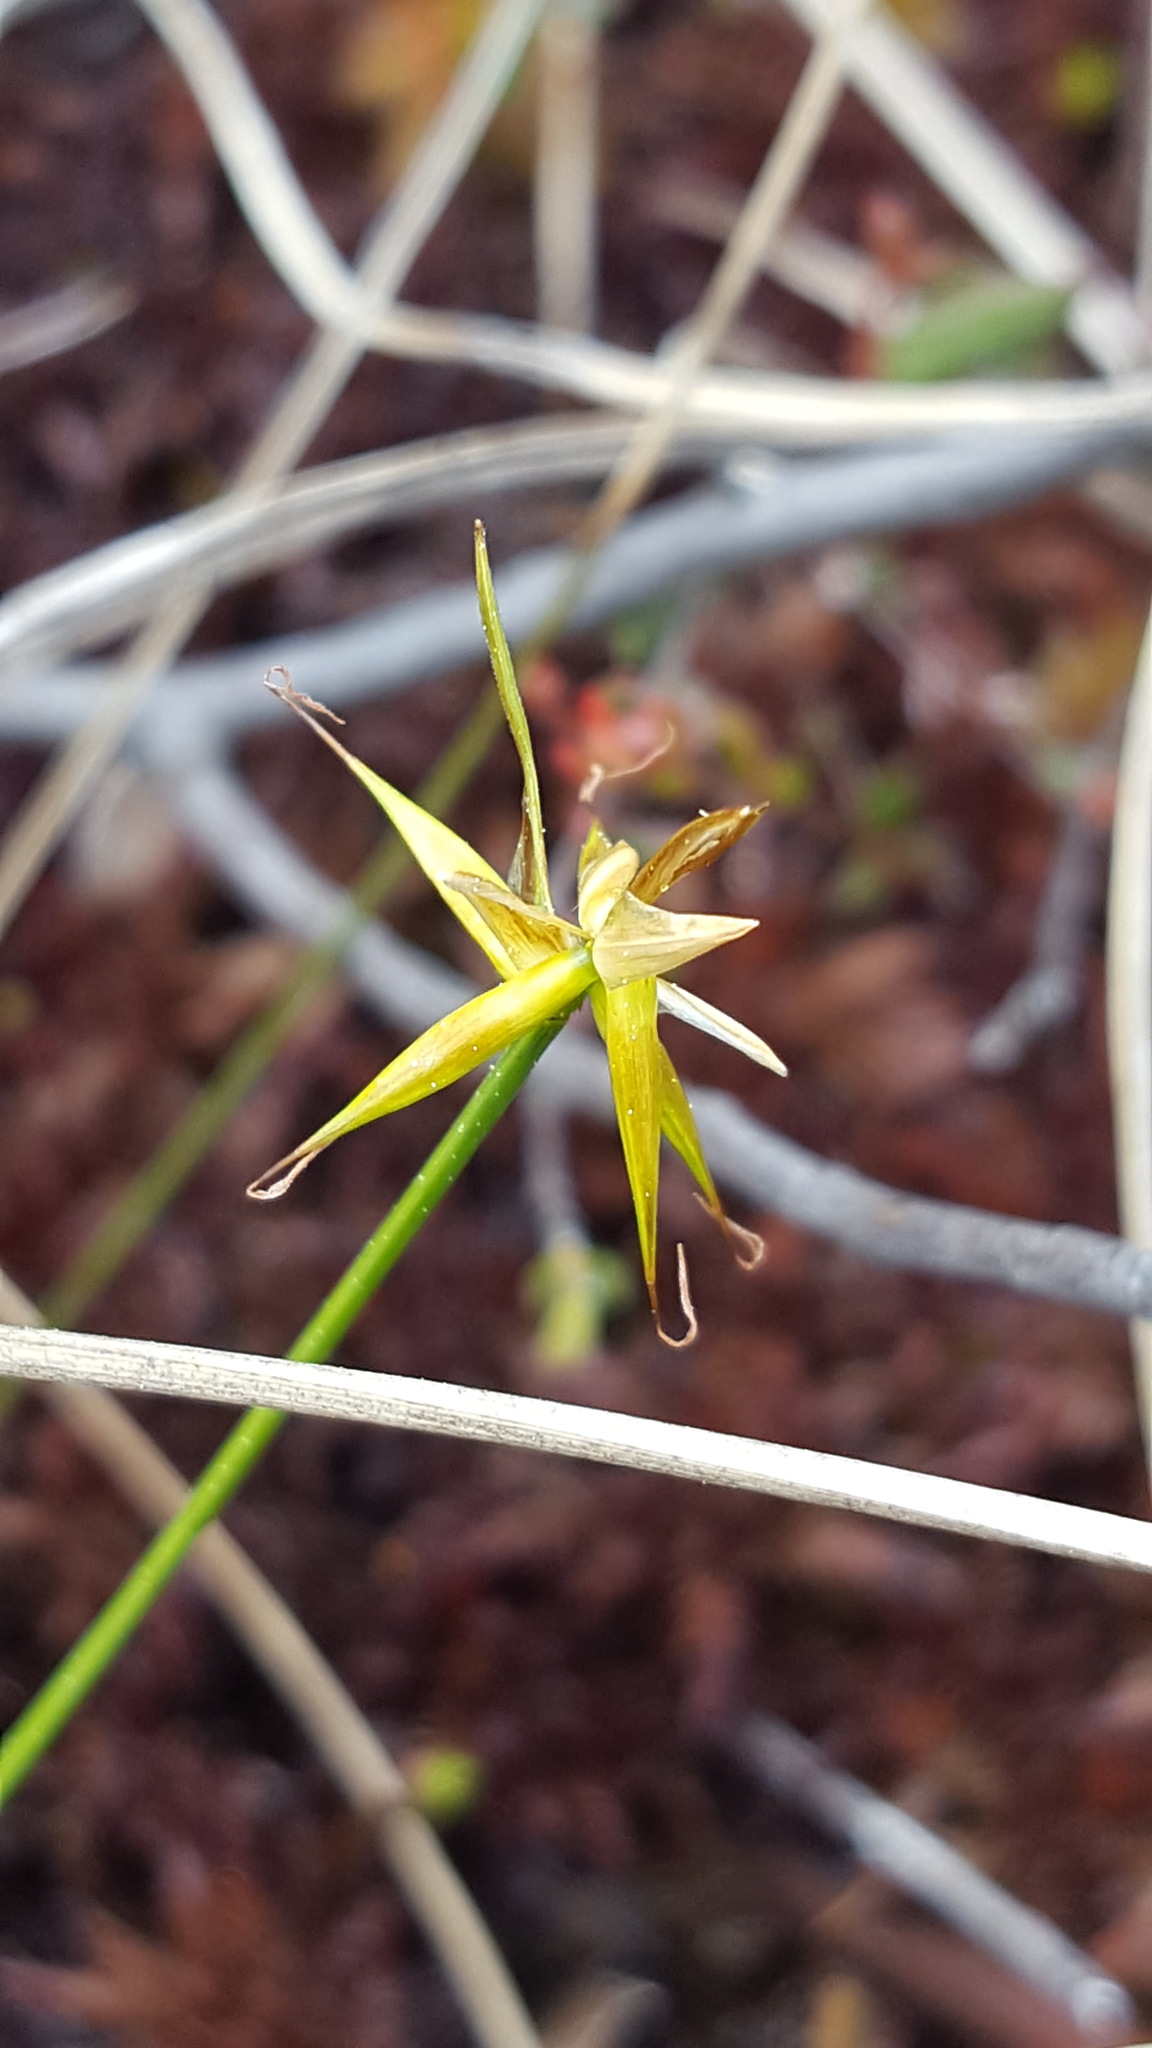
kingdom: Plantae
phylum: Tracheophyta
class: Liliopsida
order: Poales
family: Cyperaceae
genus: Carex
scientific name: Carex pauciflora
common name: Few-flowered sedge
